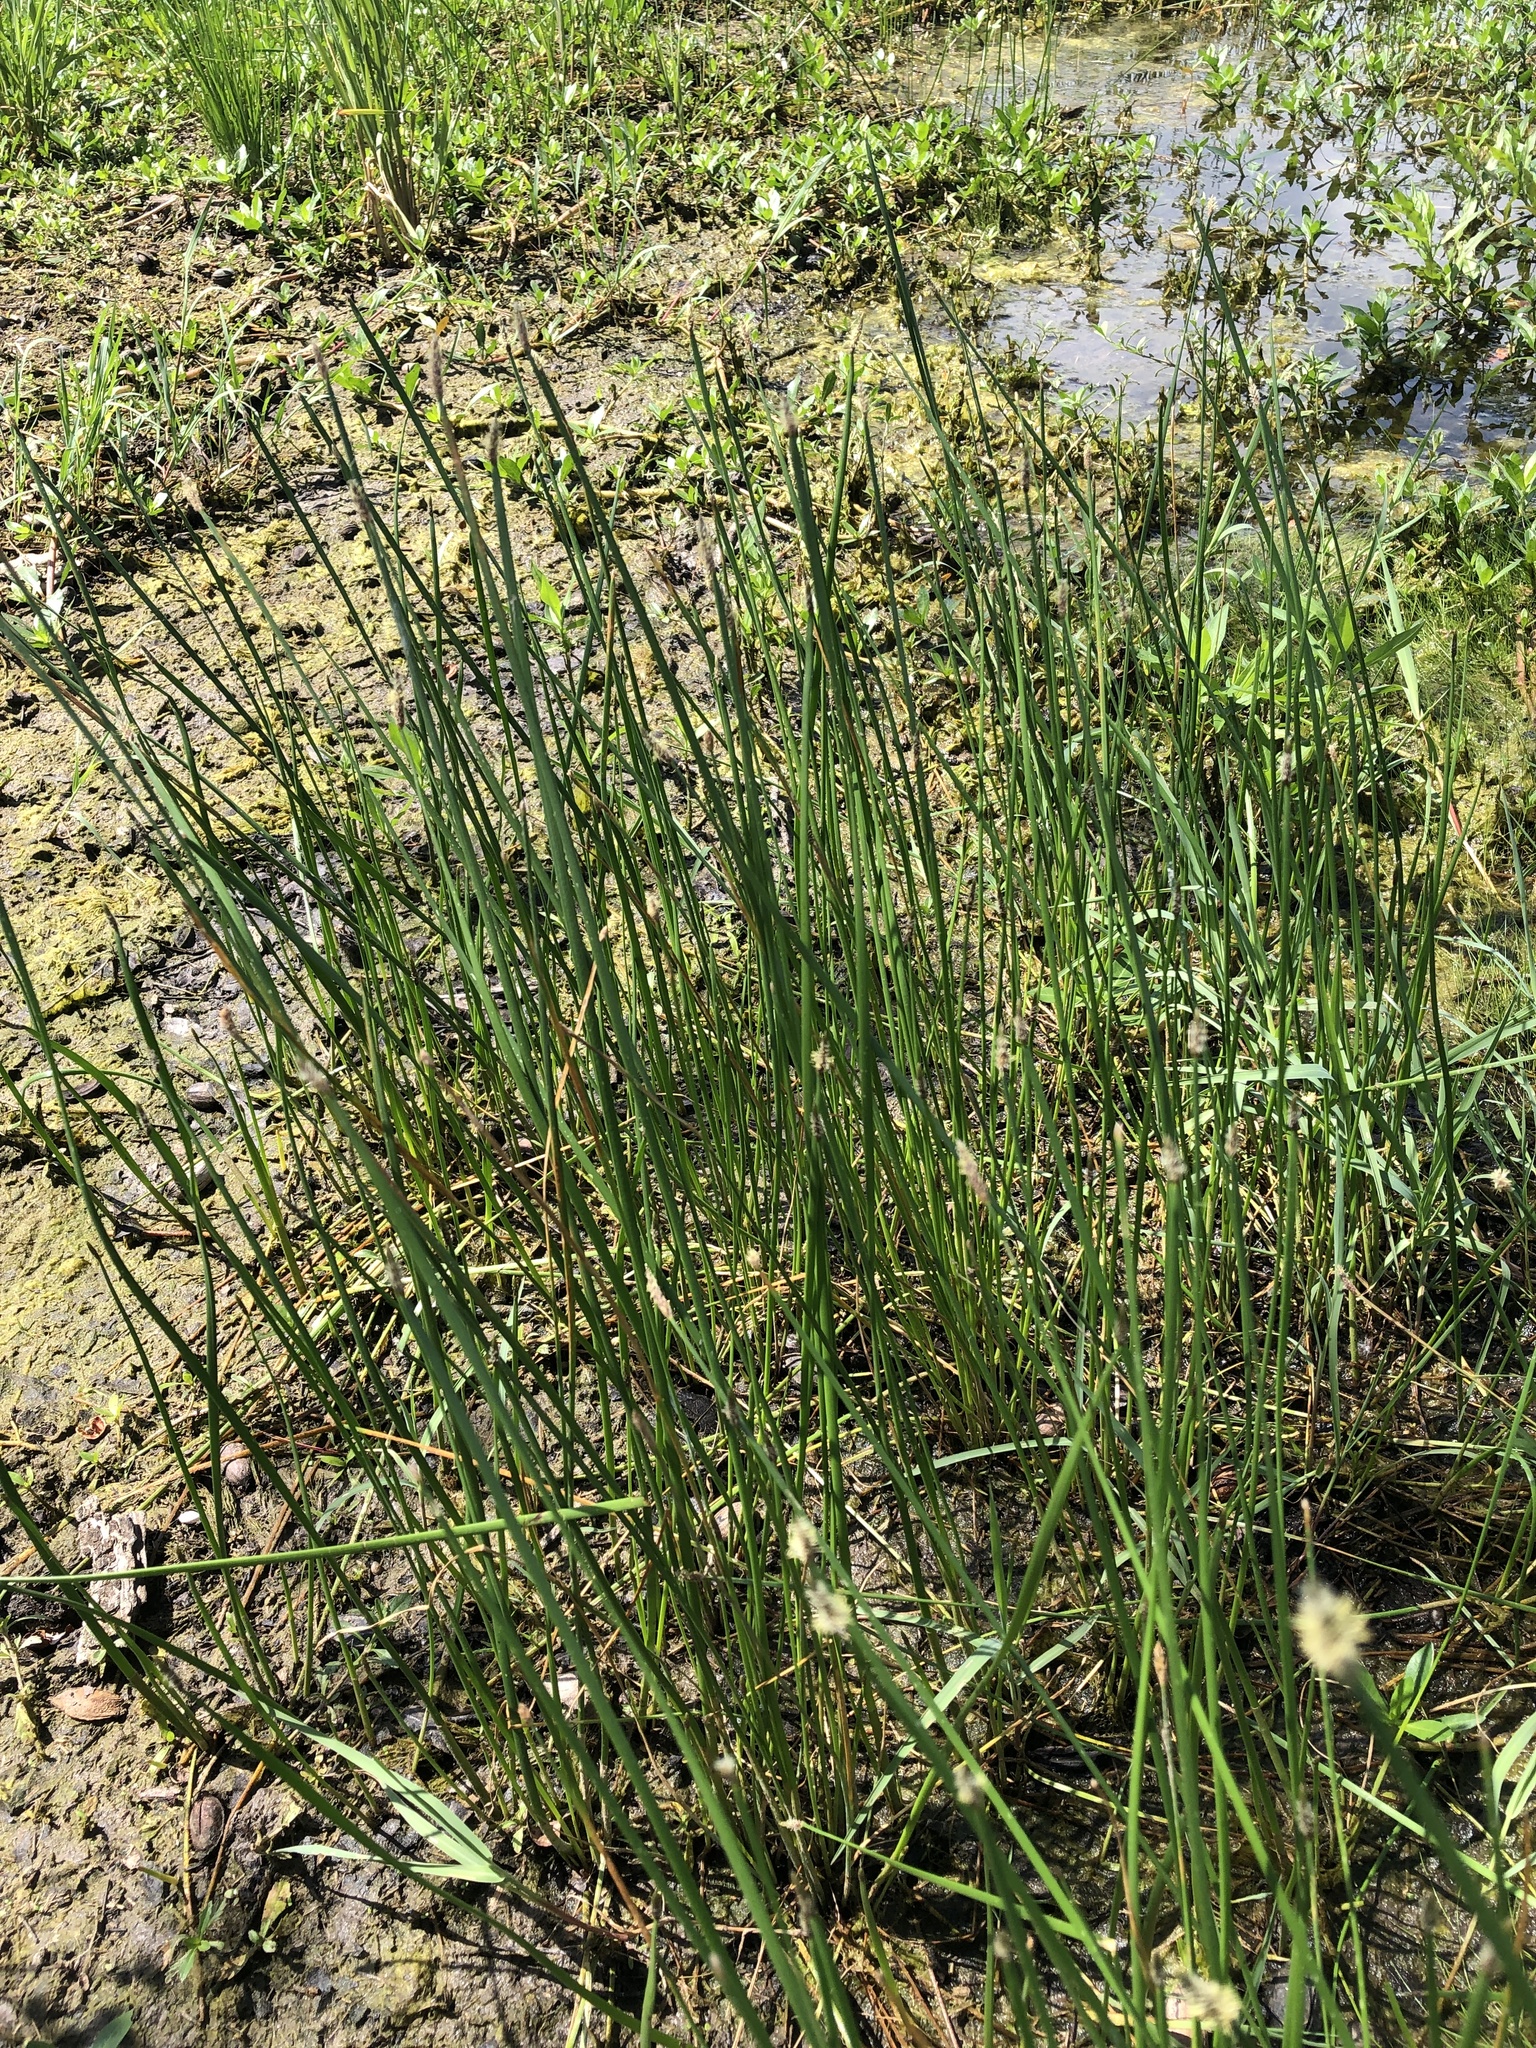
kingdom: Plantae
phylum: Tracheophyta
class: Liliopsida
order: Poales
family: Cyperaceae
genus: Eleocharis
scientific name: Eleocharis palustris
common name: Common spike-rush
